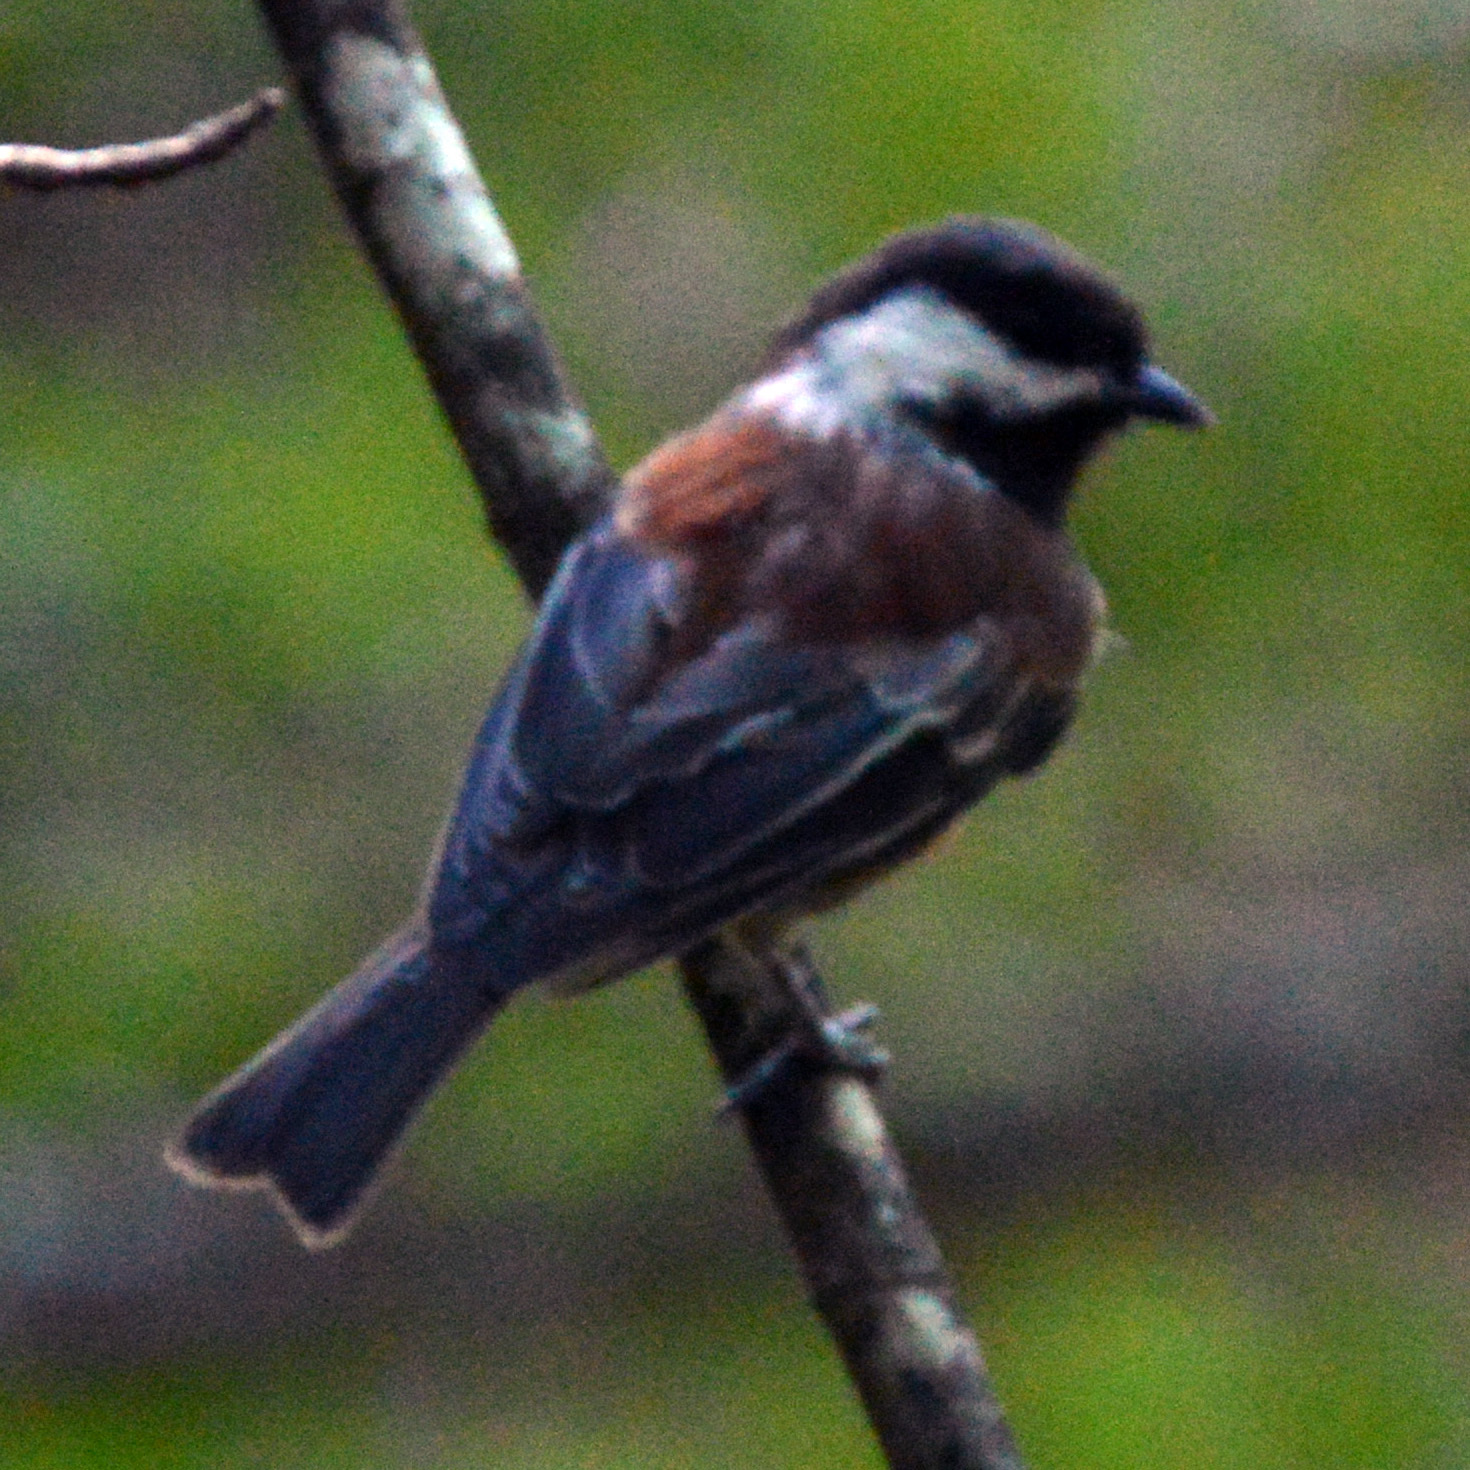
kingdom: Animalia
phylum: Chordata
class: Aves
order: Passeriformes
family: Paridae
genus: Poecile
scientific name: Poecile rufescens
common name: Chestnut-backed chickadee
